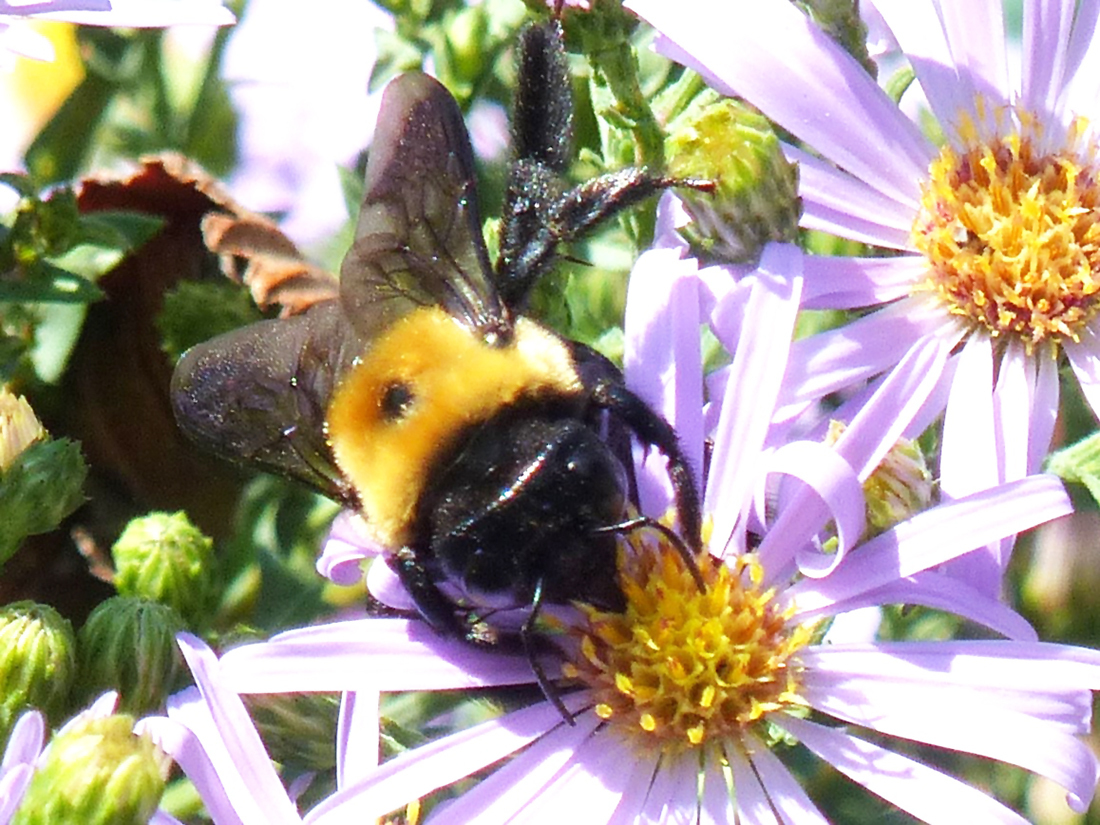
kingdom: Animalia
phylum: Arthropoda
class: Insecta
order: Hymenoptera
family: Apidae
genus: Xylocopa
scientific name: Xylocopa virginica
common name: Carpenter bee
